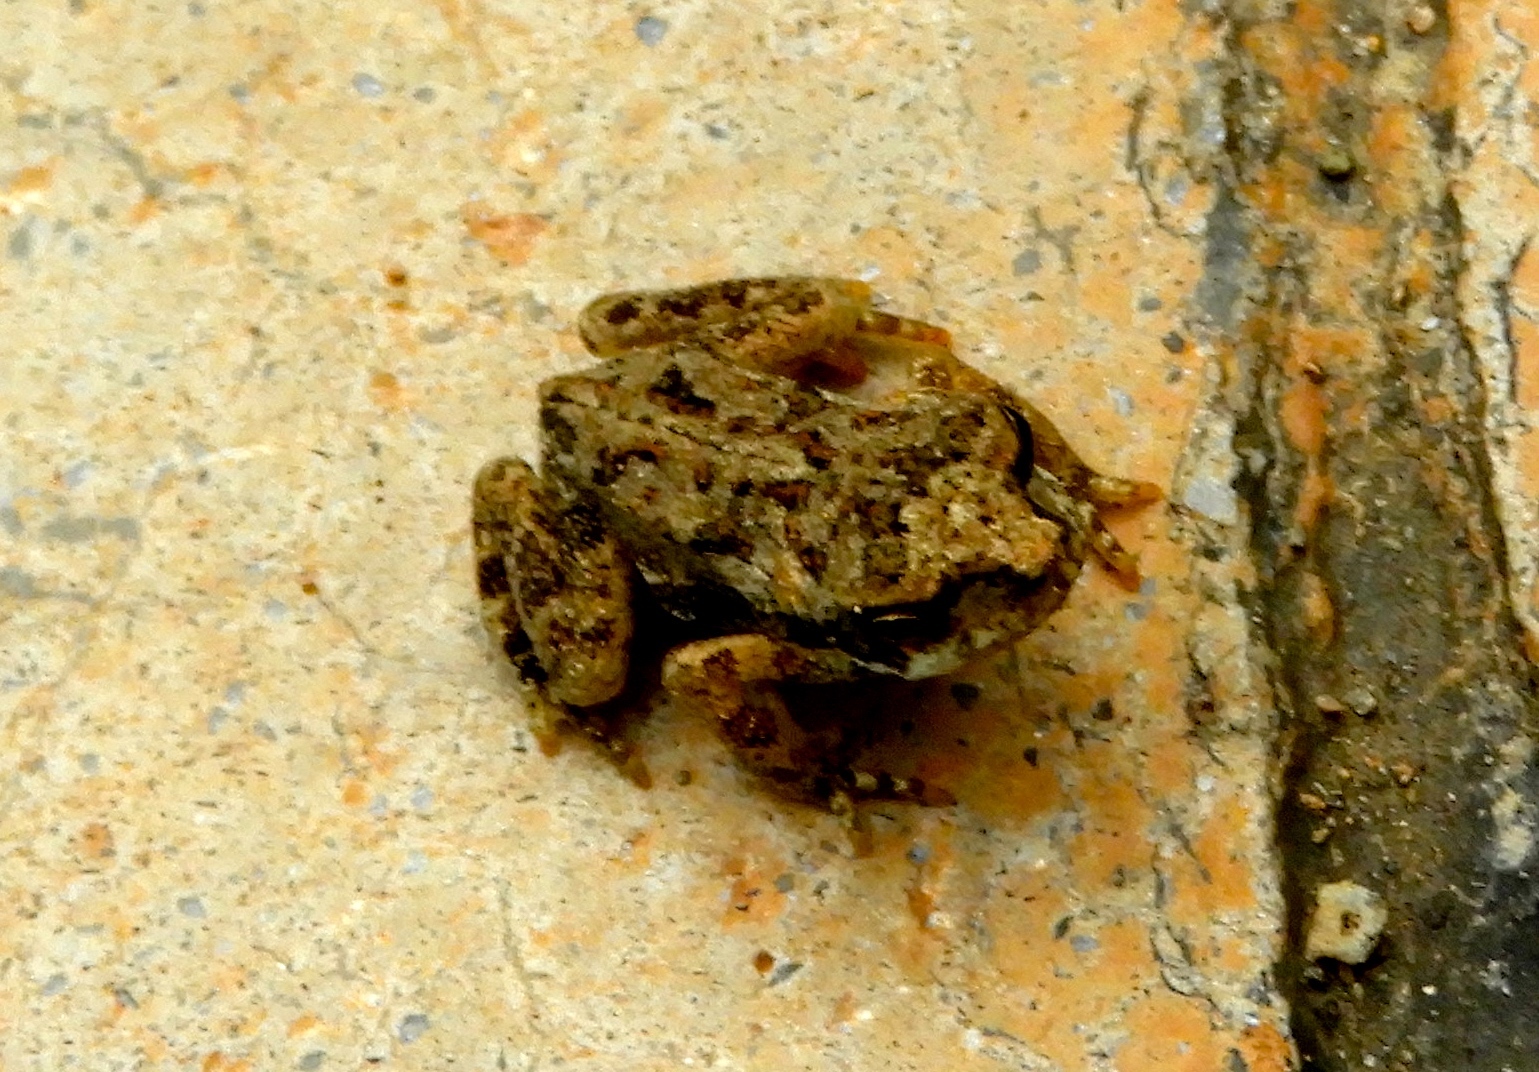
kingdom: Animalia
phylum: Chordata
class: Amphibia
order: Anura
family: Bufonidae
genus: Incilius
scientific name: Incilius marmoreus
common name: Marbled toad
